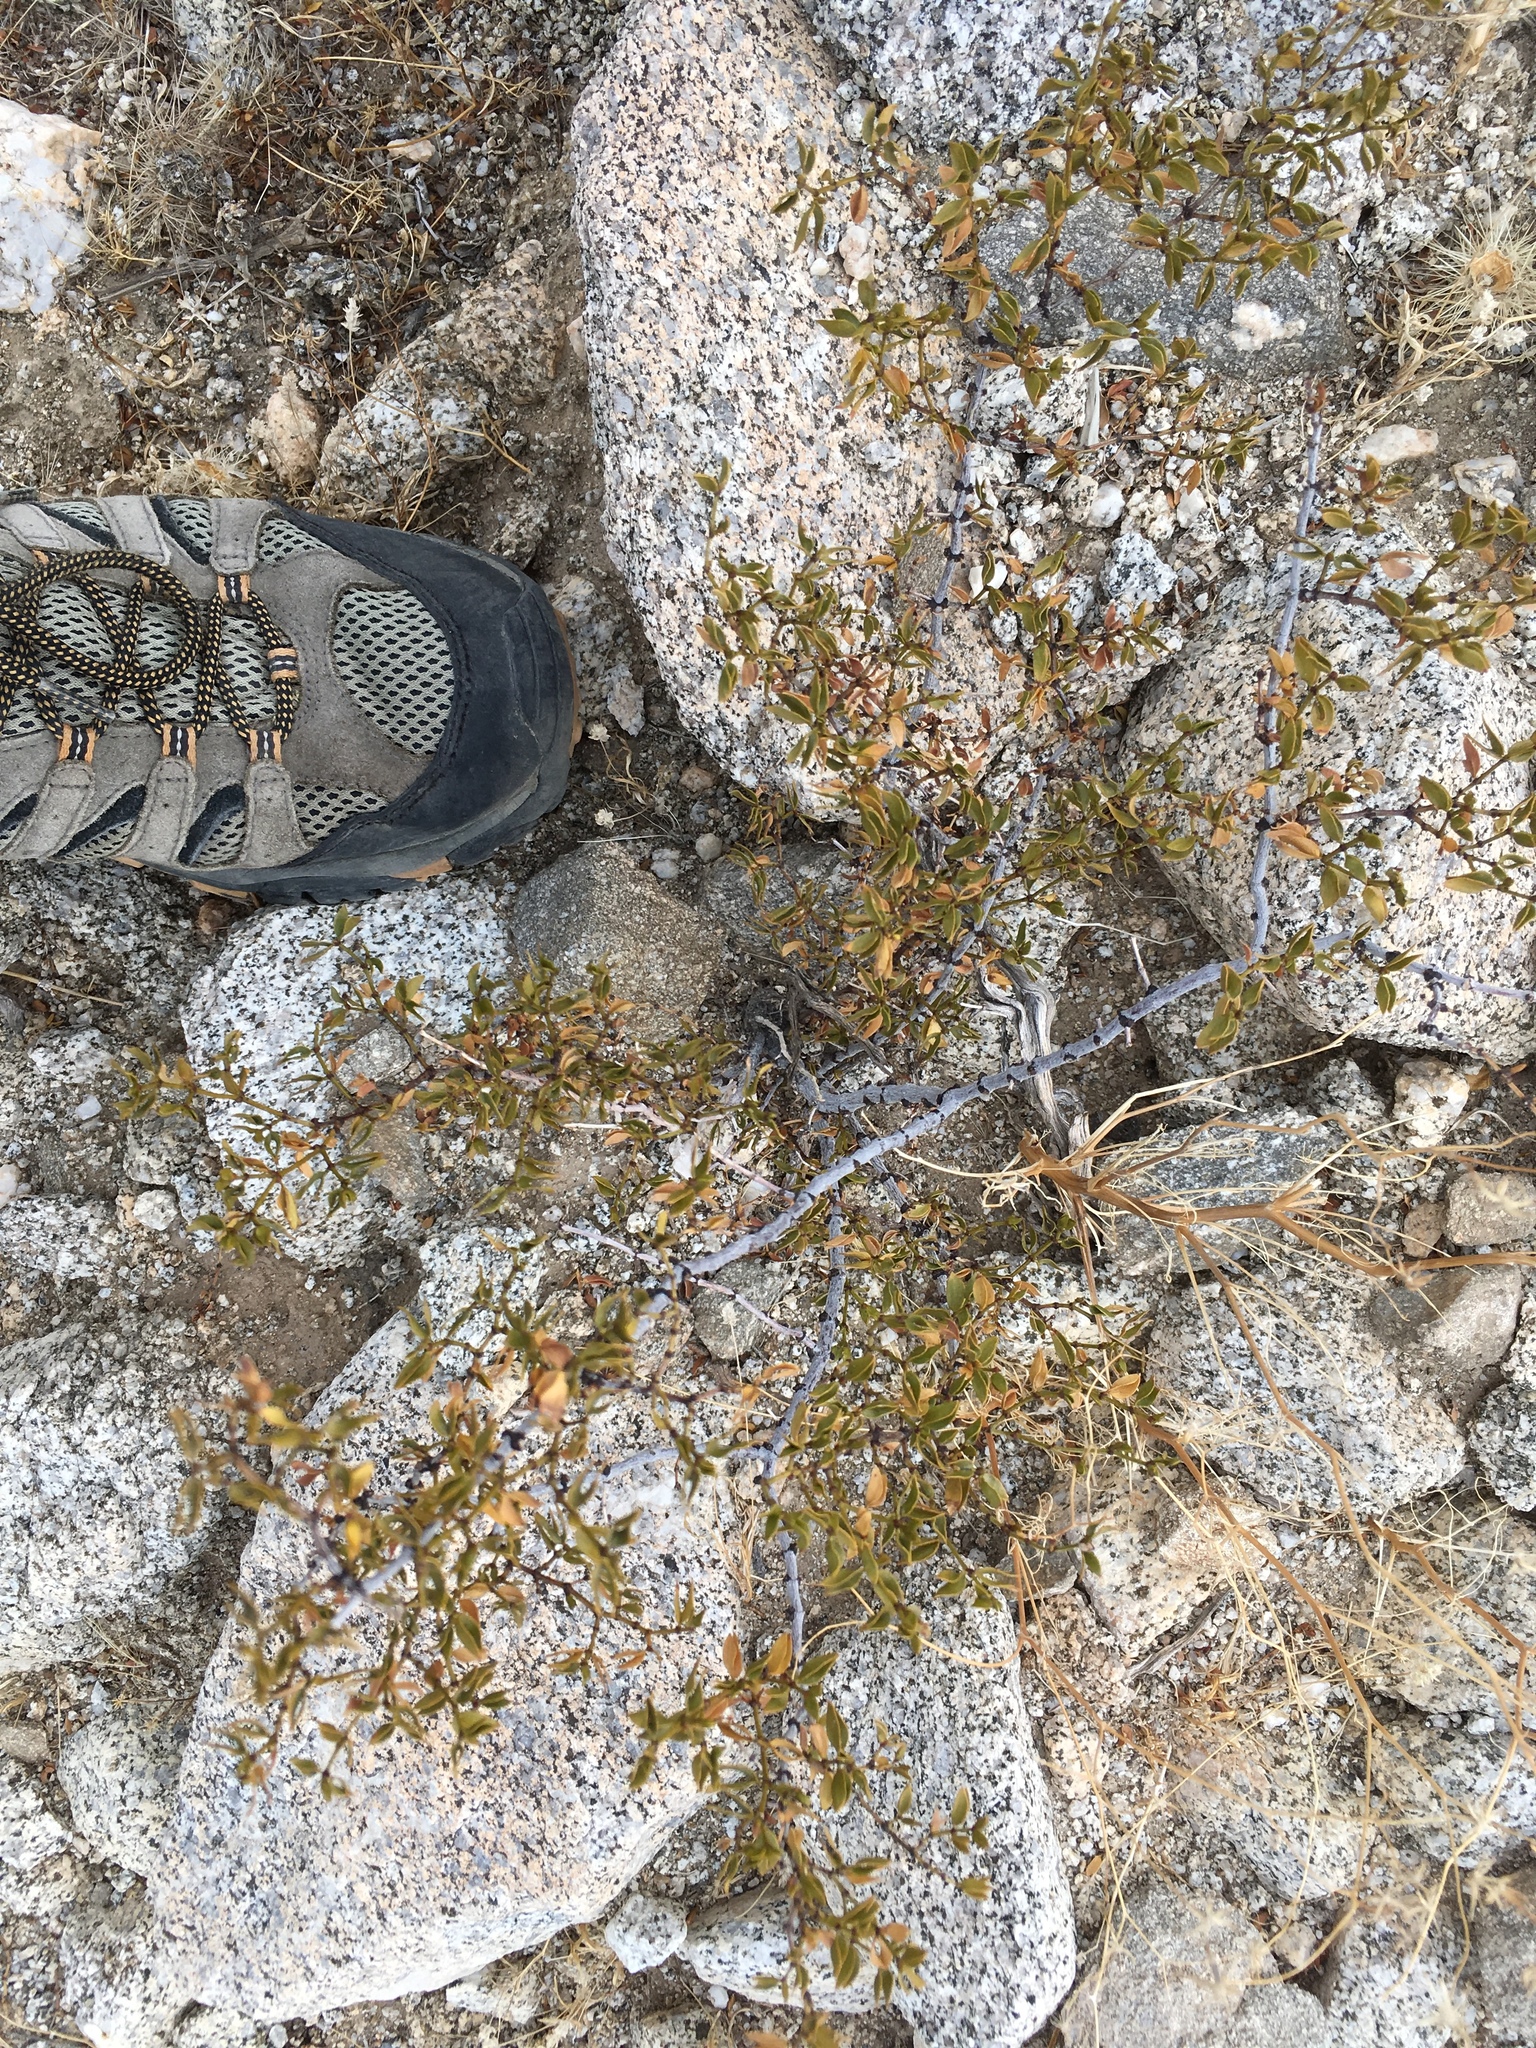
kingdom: Plantae
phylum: Tracheophyta
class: Magnoliopsida
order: Zygophyllales
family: Zygophyllaceae
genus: Larrea
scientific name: Larrea tridentata
